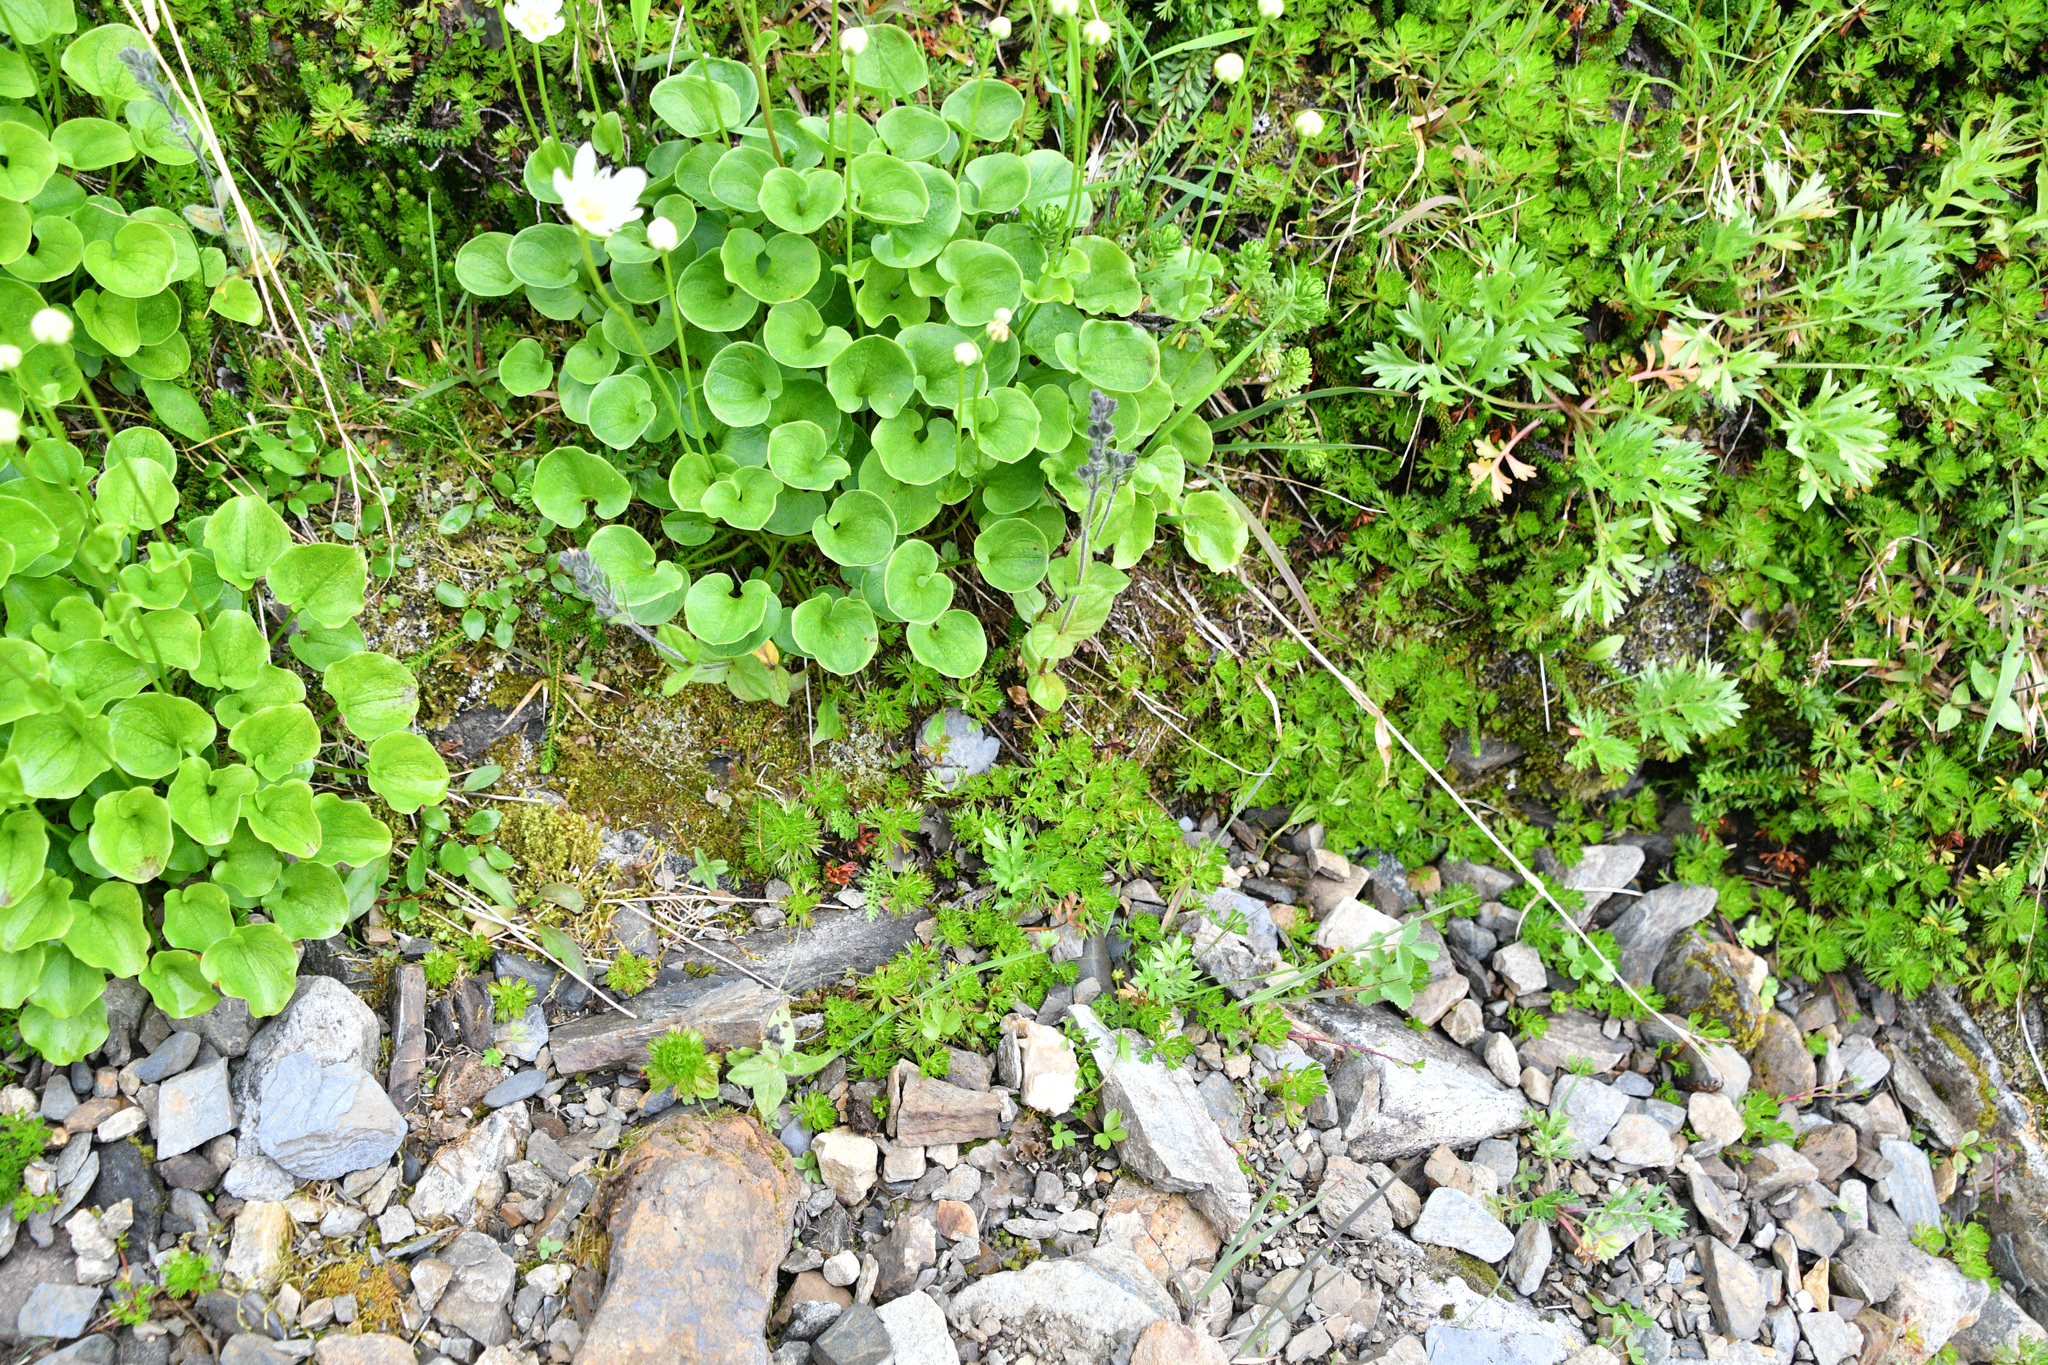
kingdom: Plantae
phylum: Tracheophyta
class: Magnoliopsida
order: Lamiales
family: Plantaginaceae
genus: Veronica
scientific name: Veronica wormskjoldii
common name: American alpine speedwell
